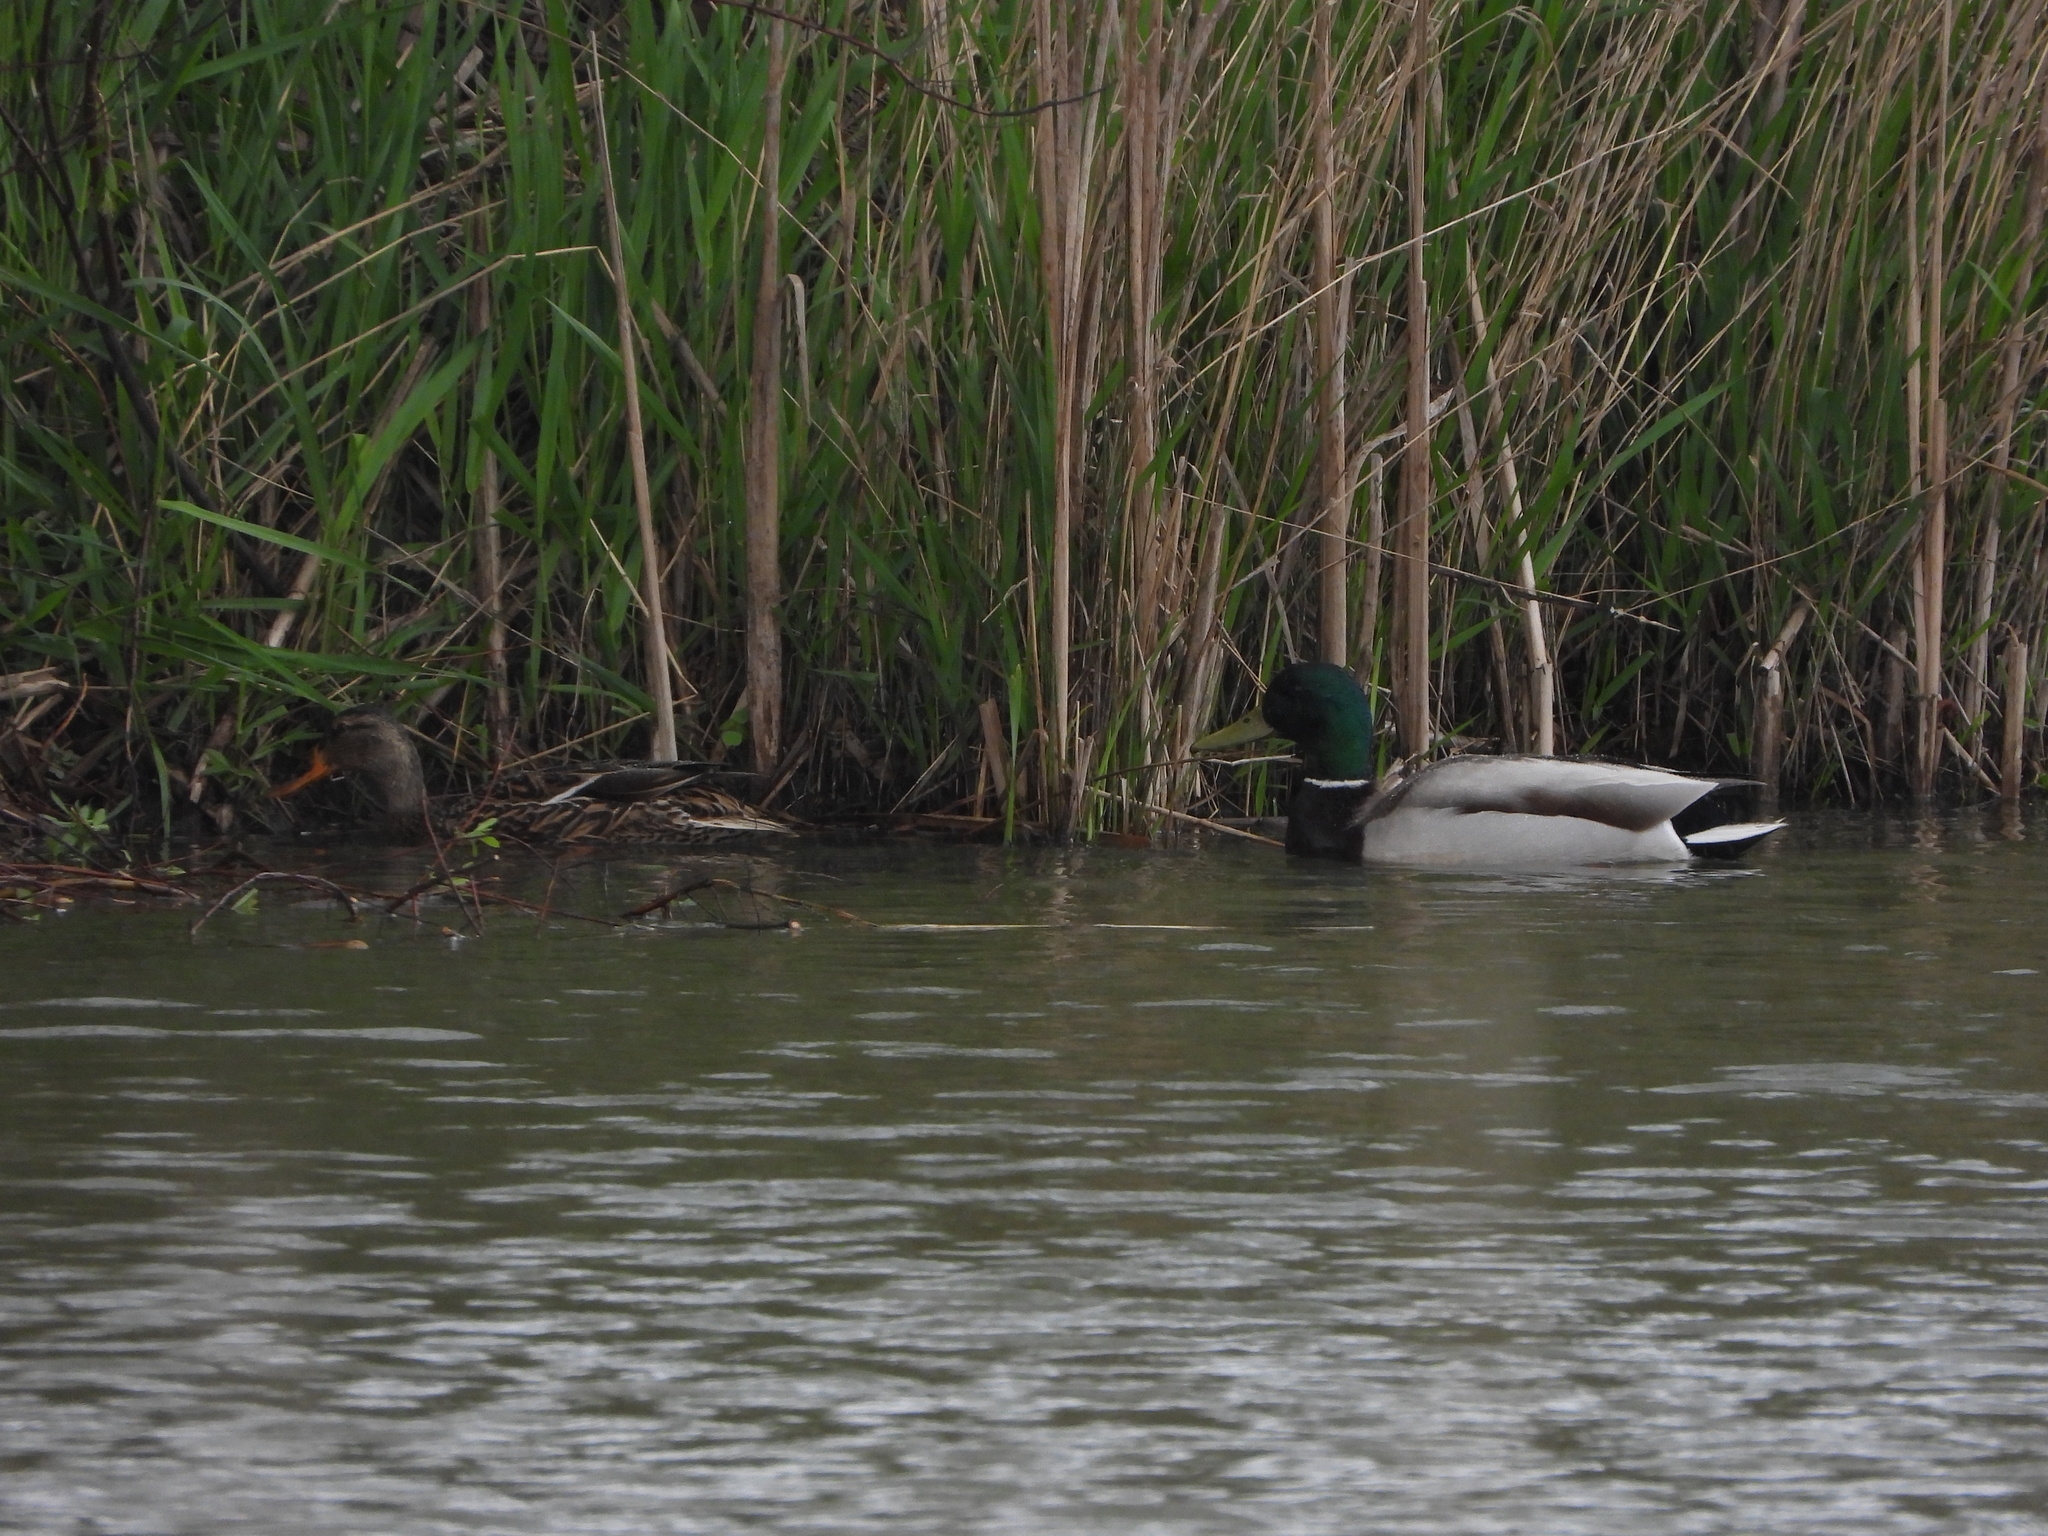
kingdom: Animalia
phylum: Chordata
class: Aves
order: Anseriformes
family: Anatidae
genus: Anas
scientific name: Anas platyrhynchos
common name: Mallard
